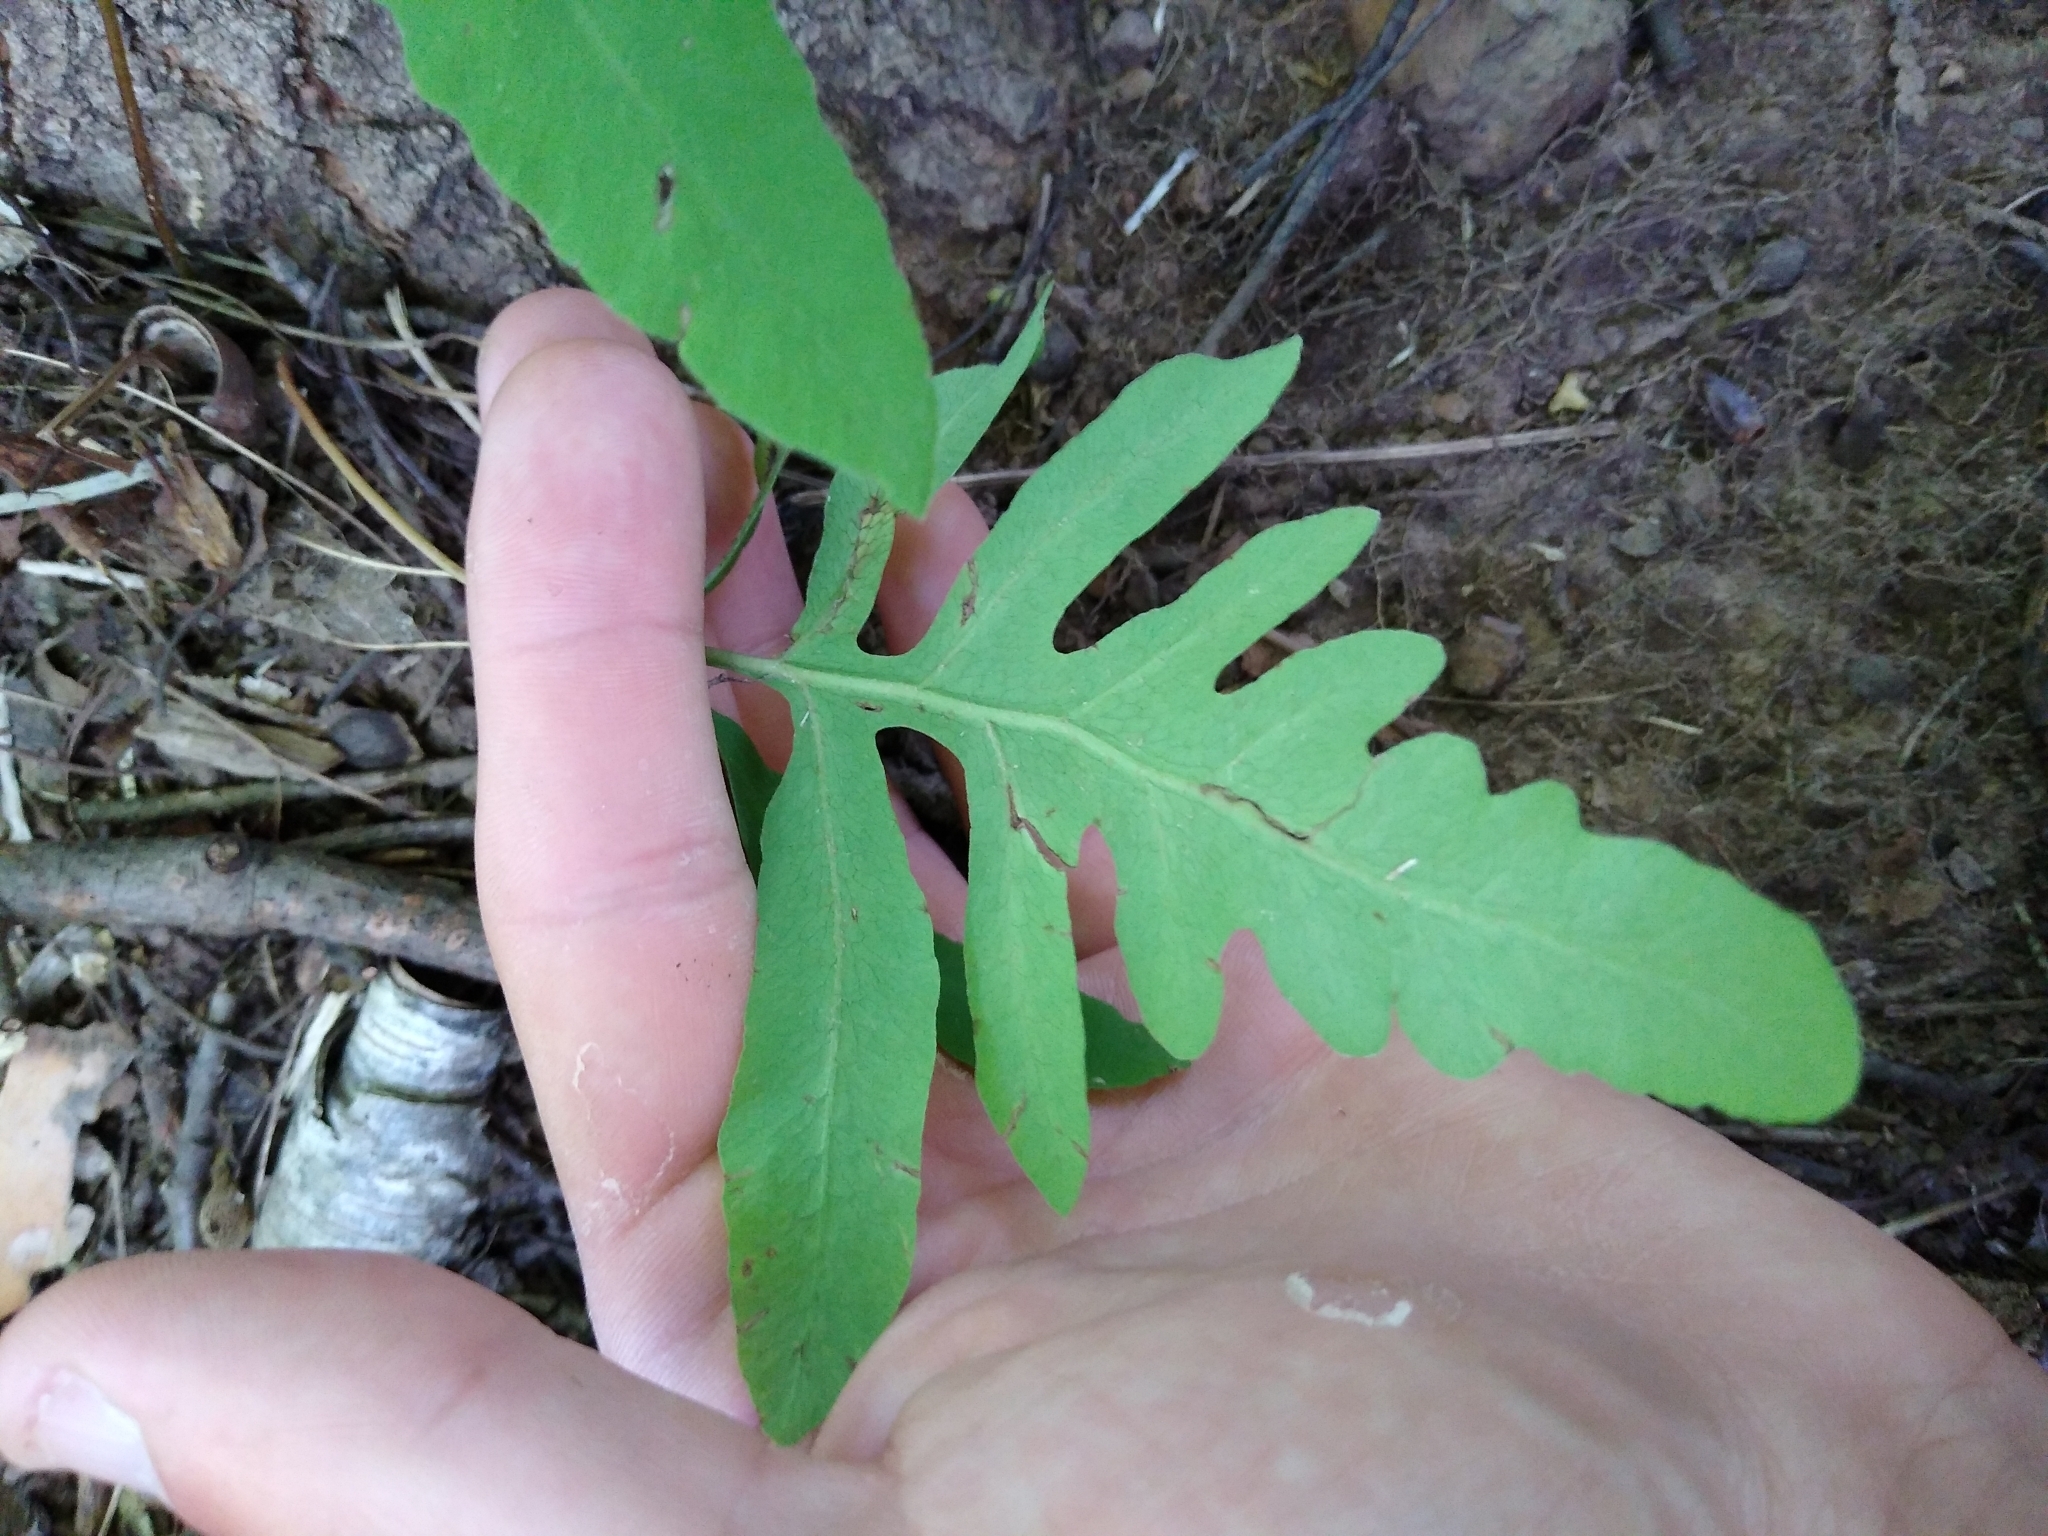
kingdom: Plantae
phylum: Tracheophyta
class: Polypodiopsida
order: Polypodiales
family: Onocleaceae
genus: Onoclea
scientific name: Onoclea sensibilis
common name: Sensitive fern
